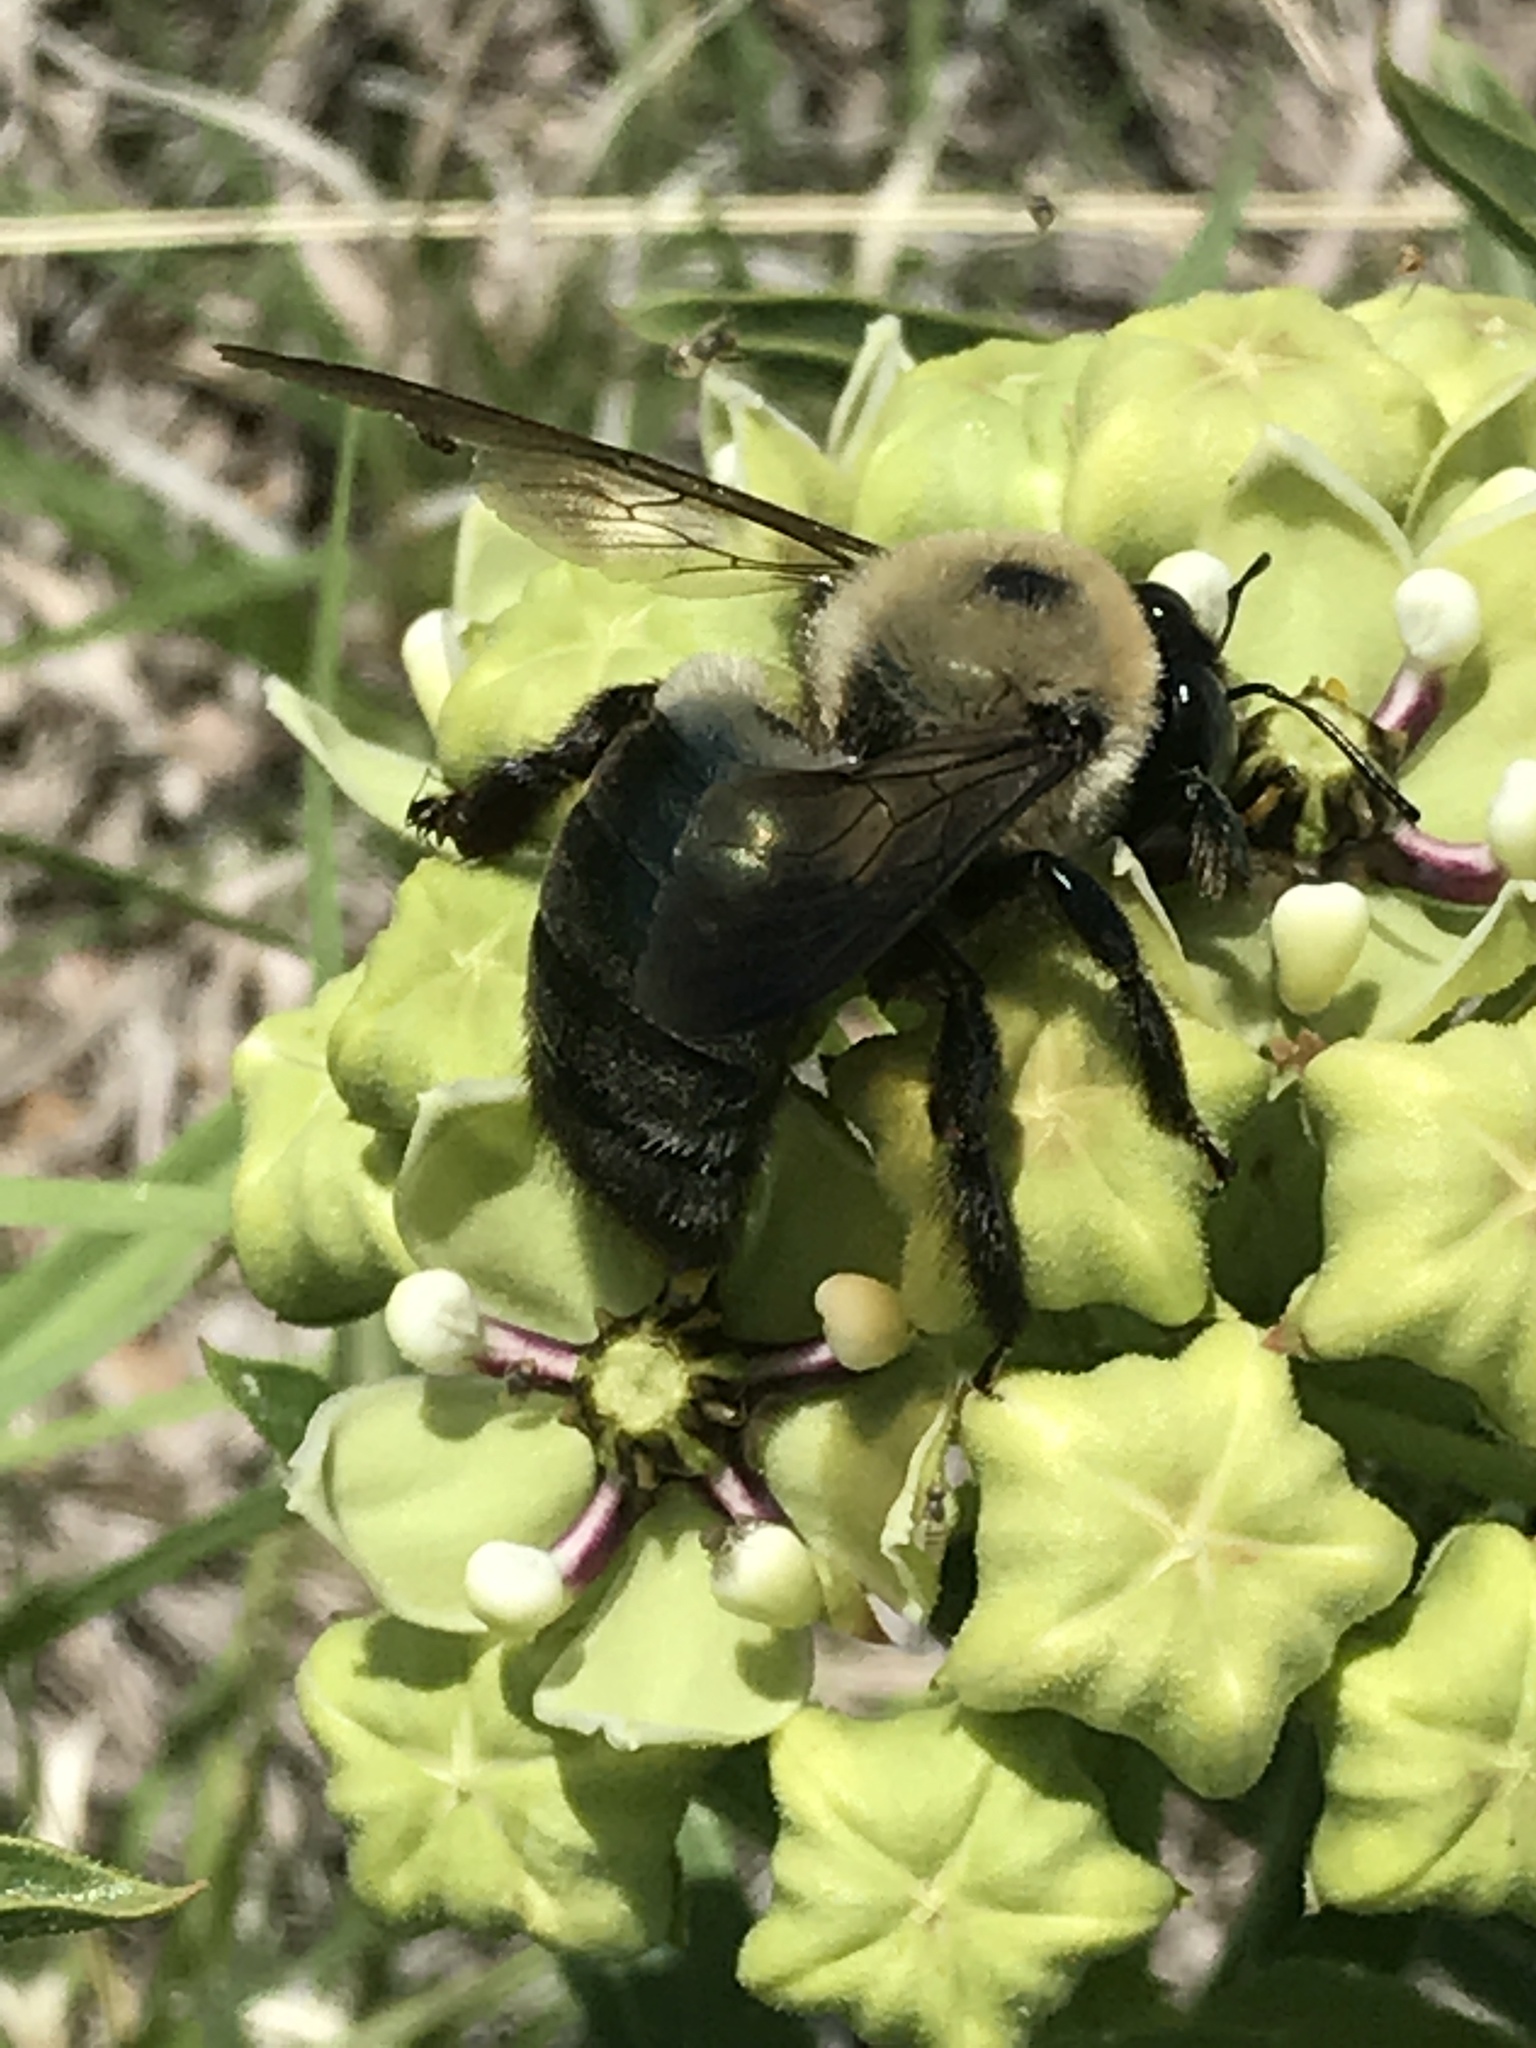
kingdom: Animalia
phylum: Arthropoda
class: Insecta
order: Hymenoptera
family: Apidae
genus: Xylocopa
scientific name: Xylocopa virginica
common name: Carpenter bee
